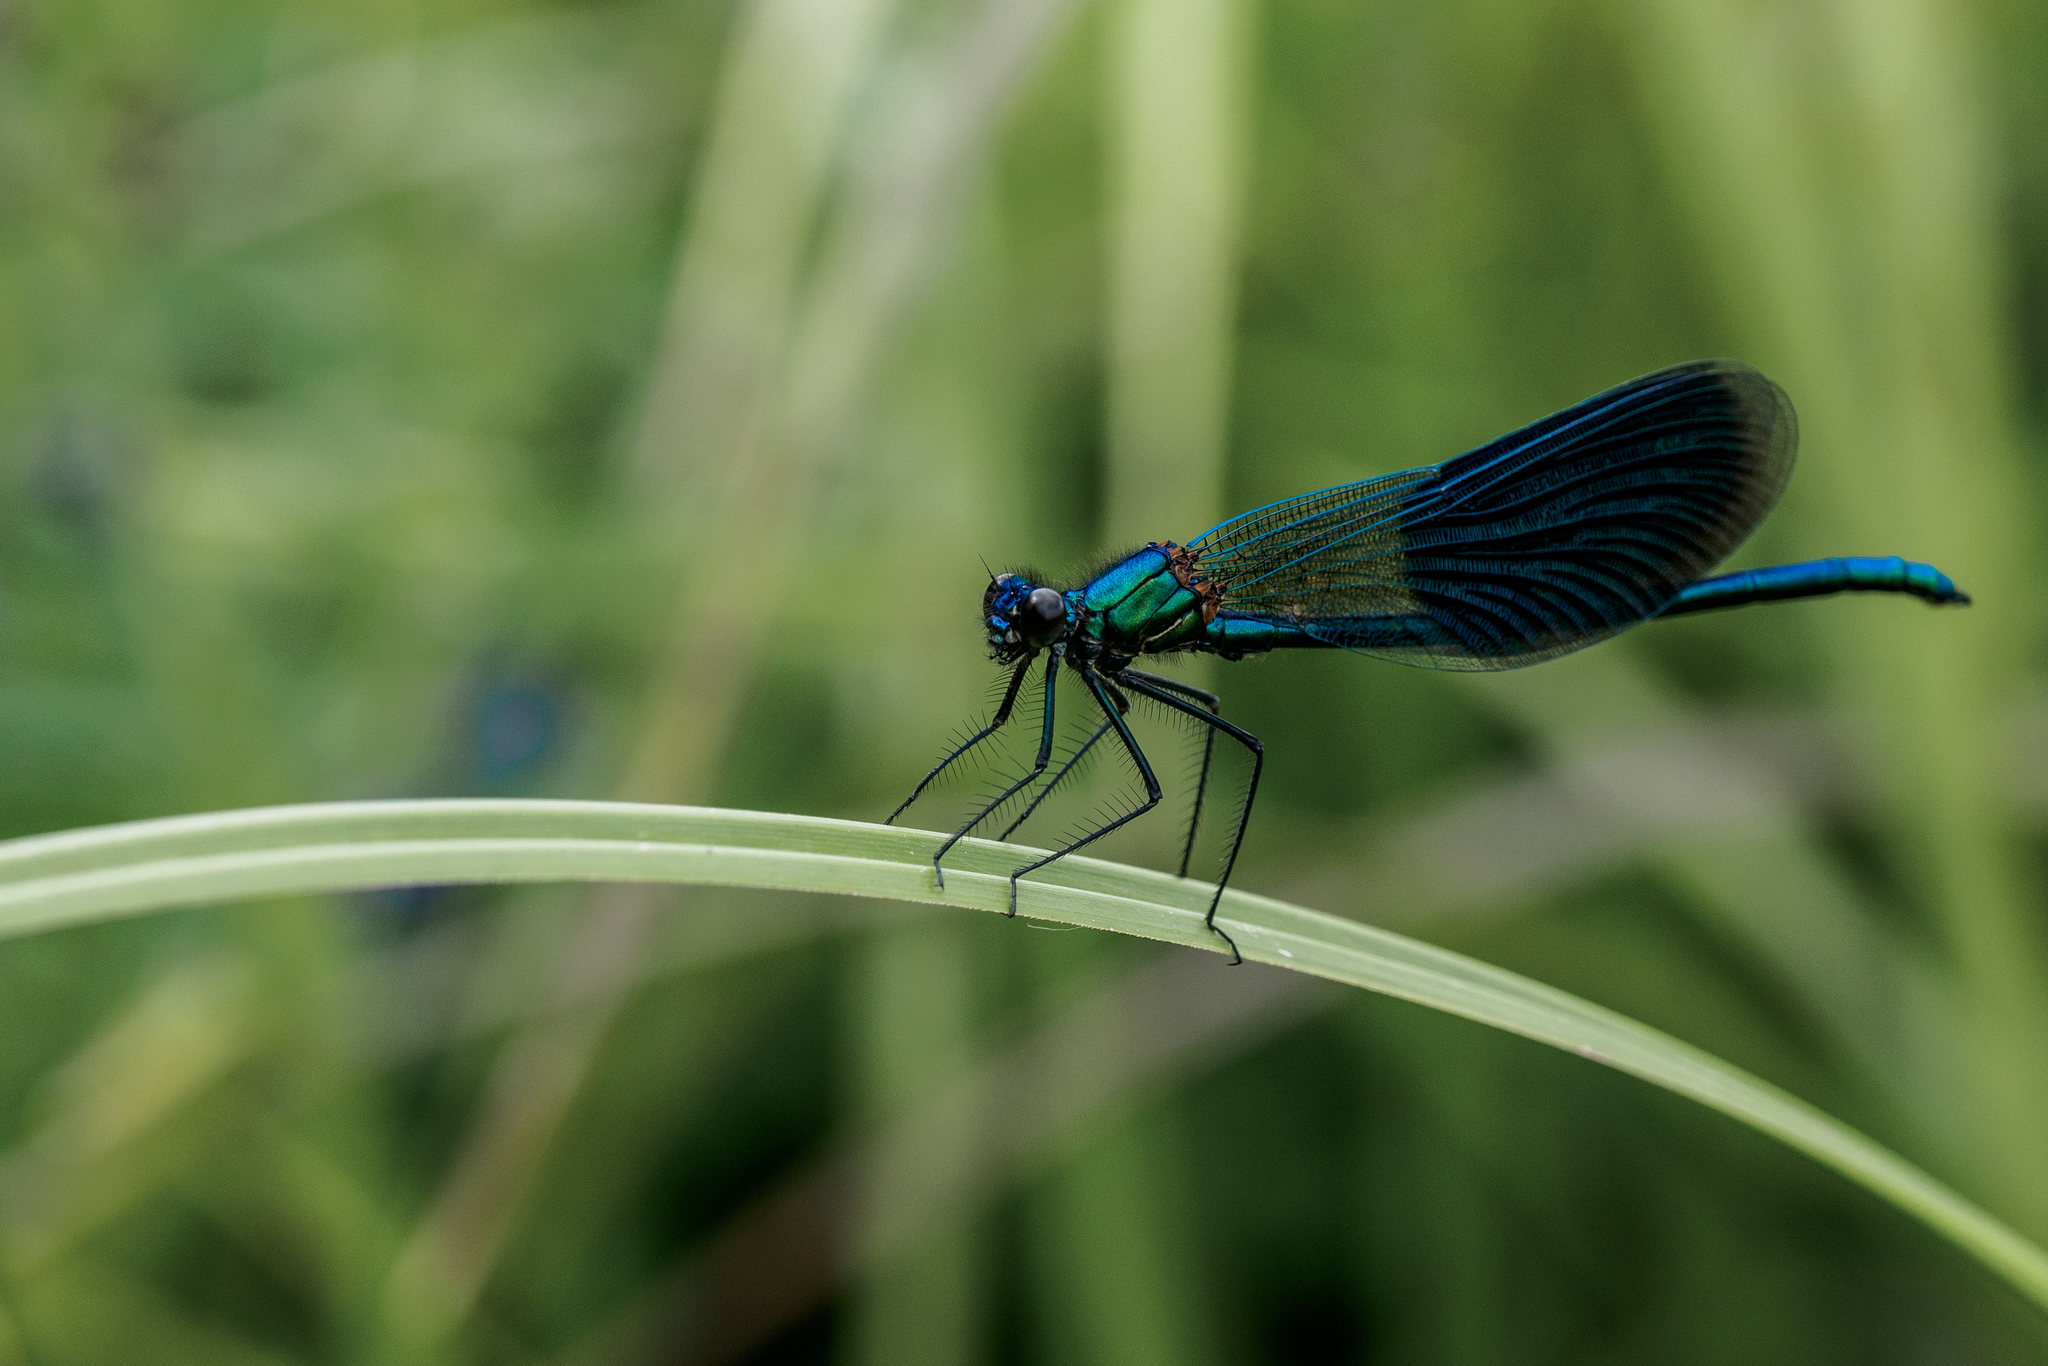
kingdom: Animalia
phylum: Arthropoda
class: Insecta
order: Odonata
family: Calopterygidae
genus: Calopteryx
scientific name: Calopteryx splendens
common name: Banded demoiselle
